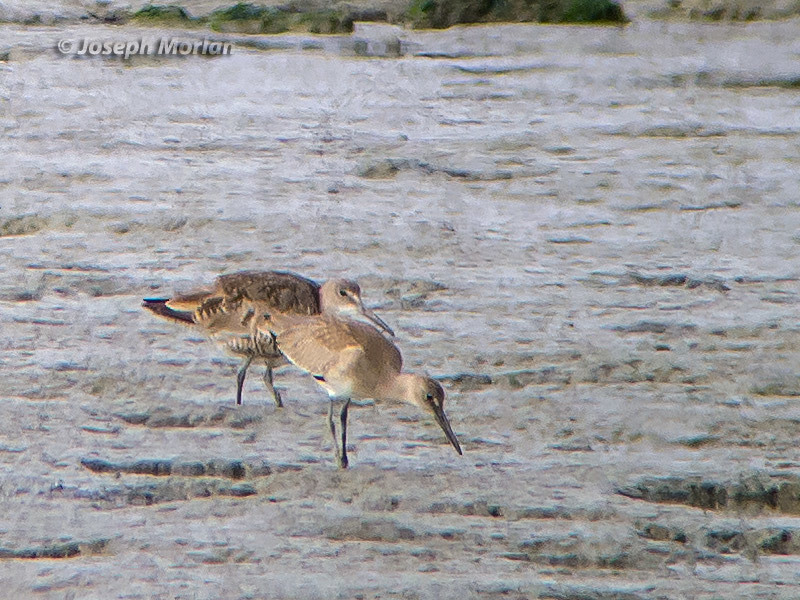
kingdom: Animalia
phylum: Chordata
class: Aves
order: Charadriiformes
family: Scolopacidae
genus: Tringa
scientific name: Tringa semipalmata
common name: Willet
